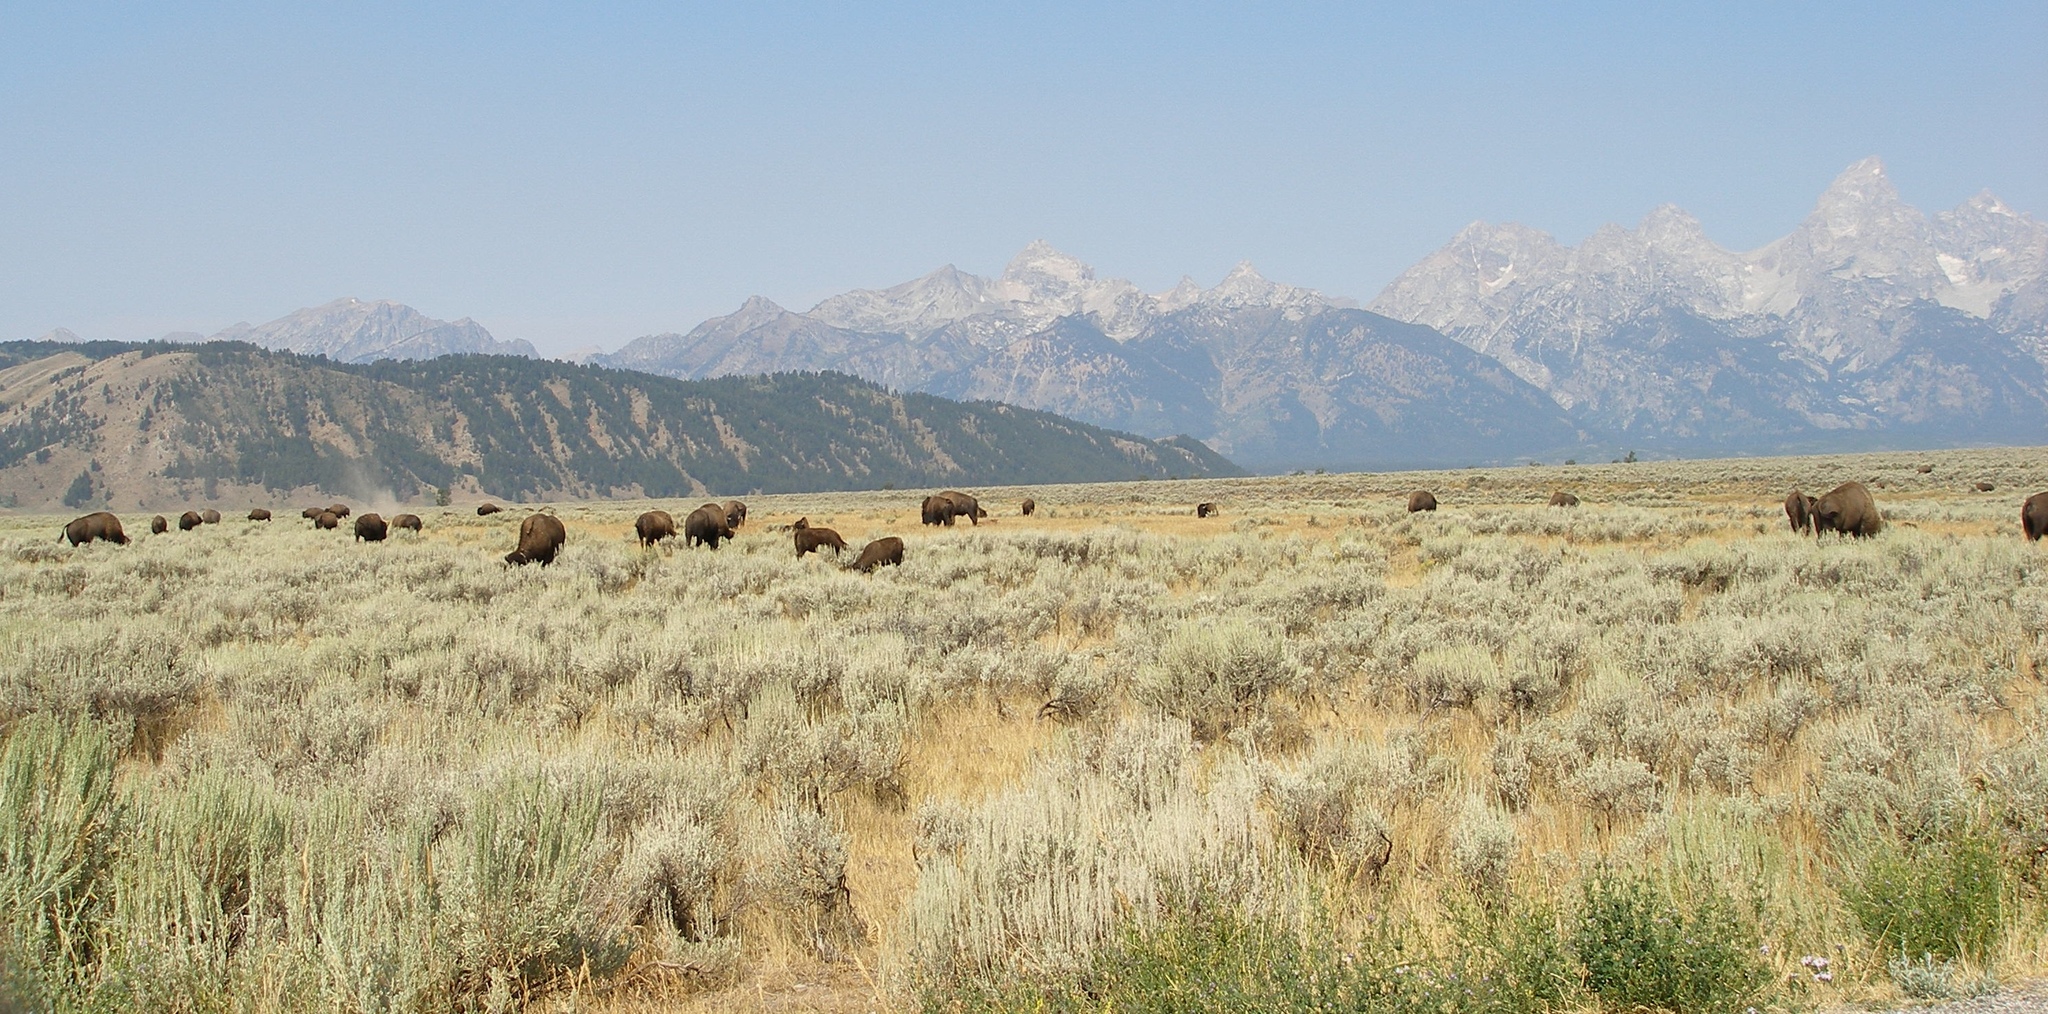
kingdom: Animalia
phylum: Chordata
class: Mammalia
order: Artiodactyla
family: Bovidae
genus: Bison
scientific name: Bison bison
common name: American bison
